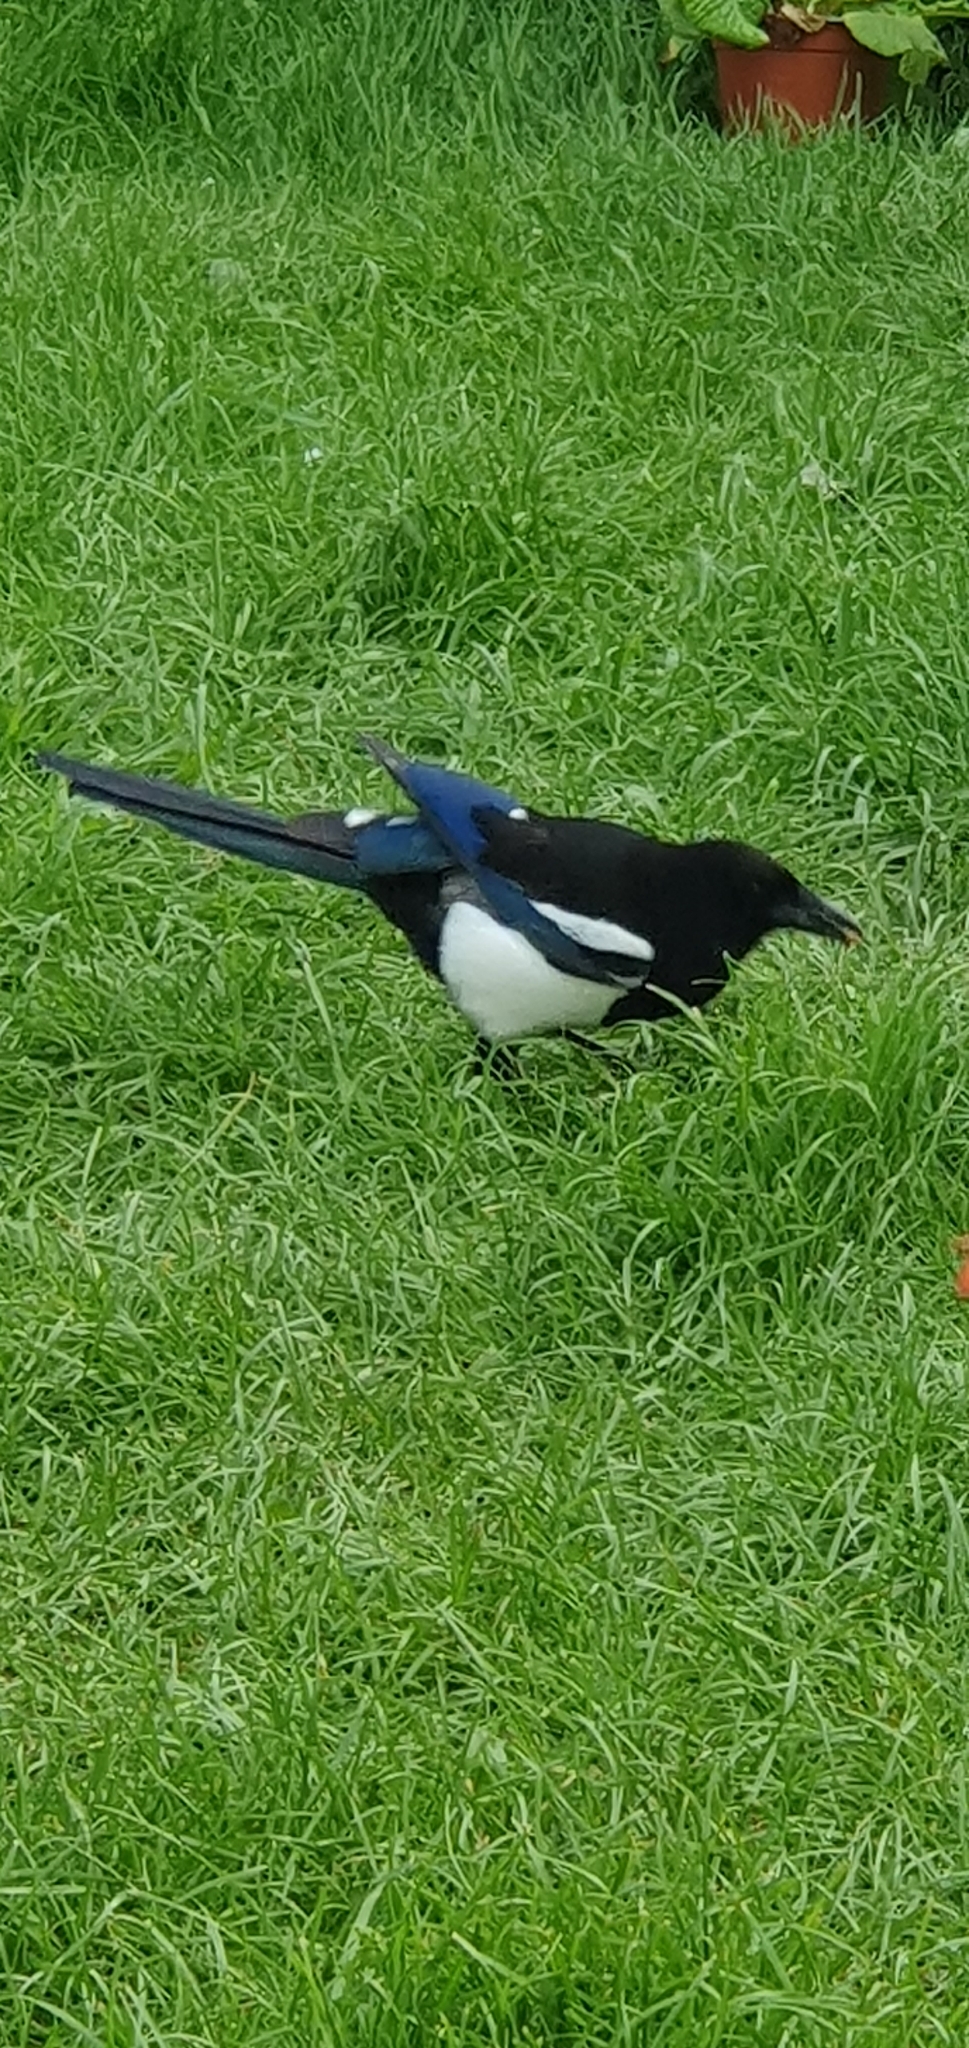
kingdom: Animalia
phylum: Chordata
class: Aves
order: Passeriformes
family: Corvidae
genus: Pica
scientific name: Pica pica
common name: Eurasian magpie
